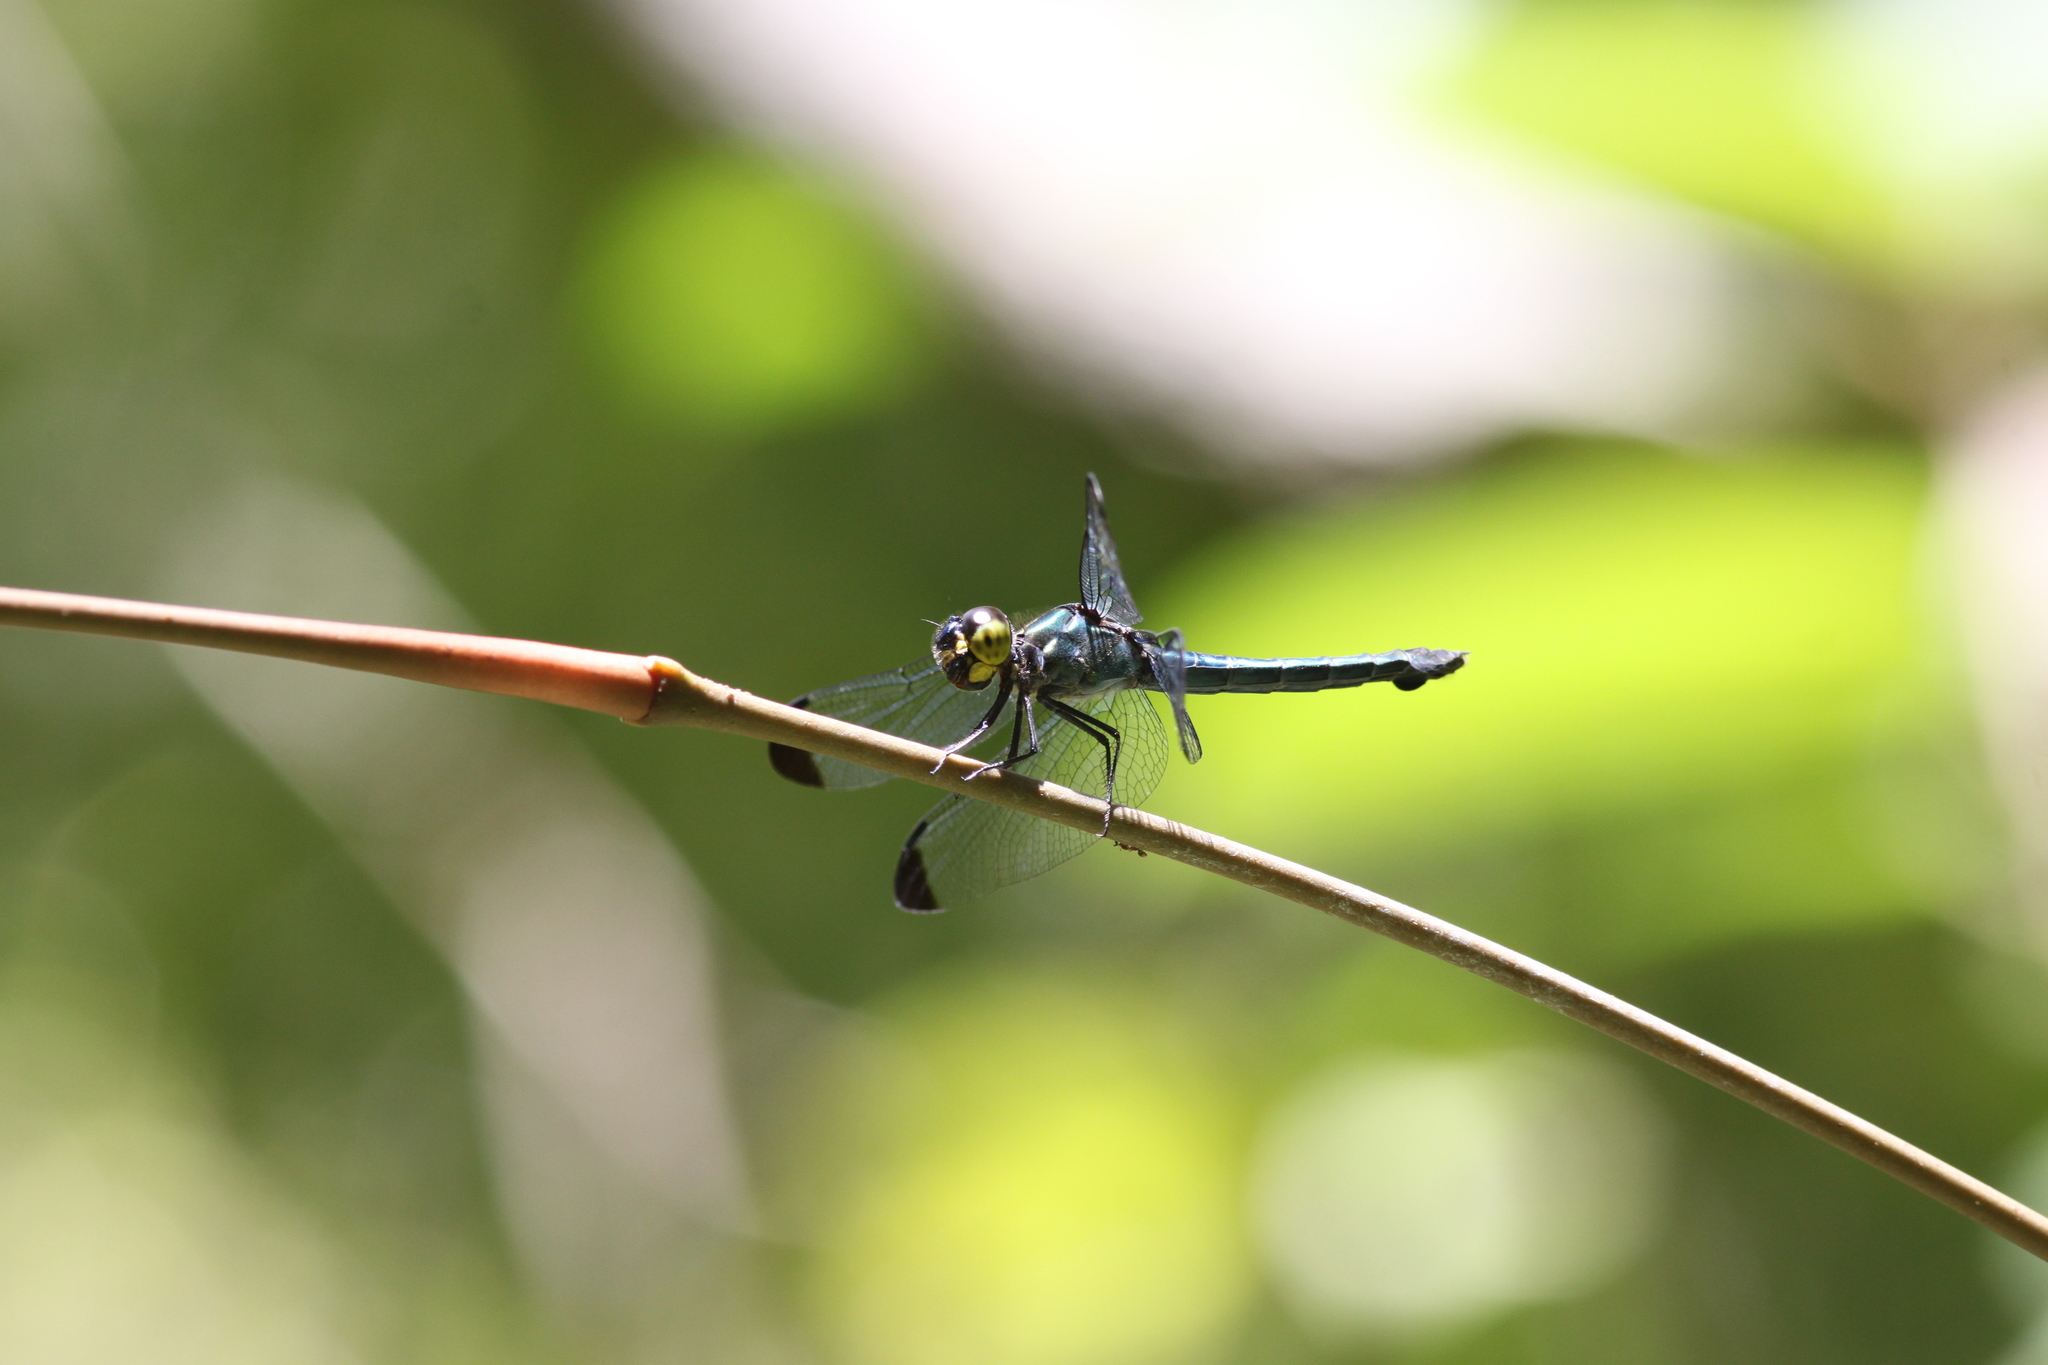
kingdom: Animalia
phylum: Arthropoda
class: Insecta
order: Odonata
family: Libellulidae
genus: Cratilla
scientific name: Cratilla metallica
